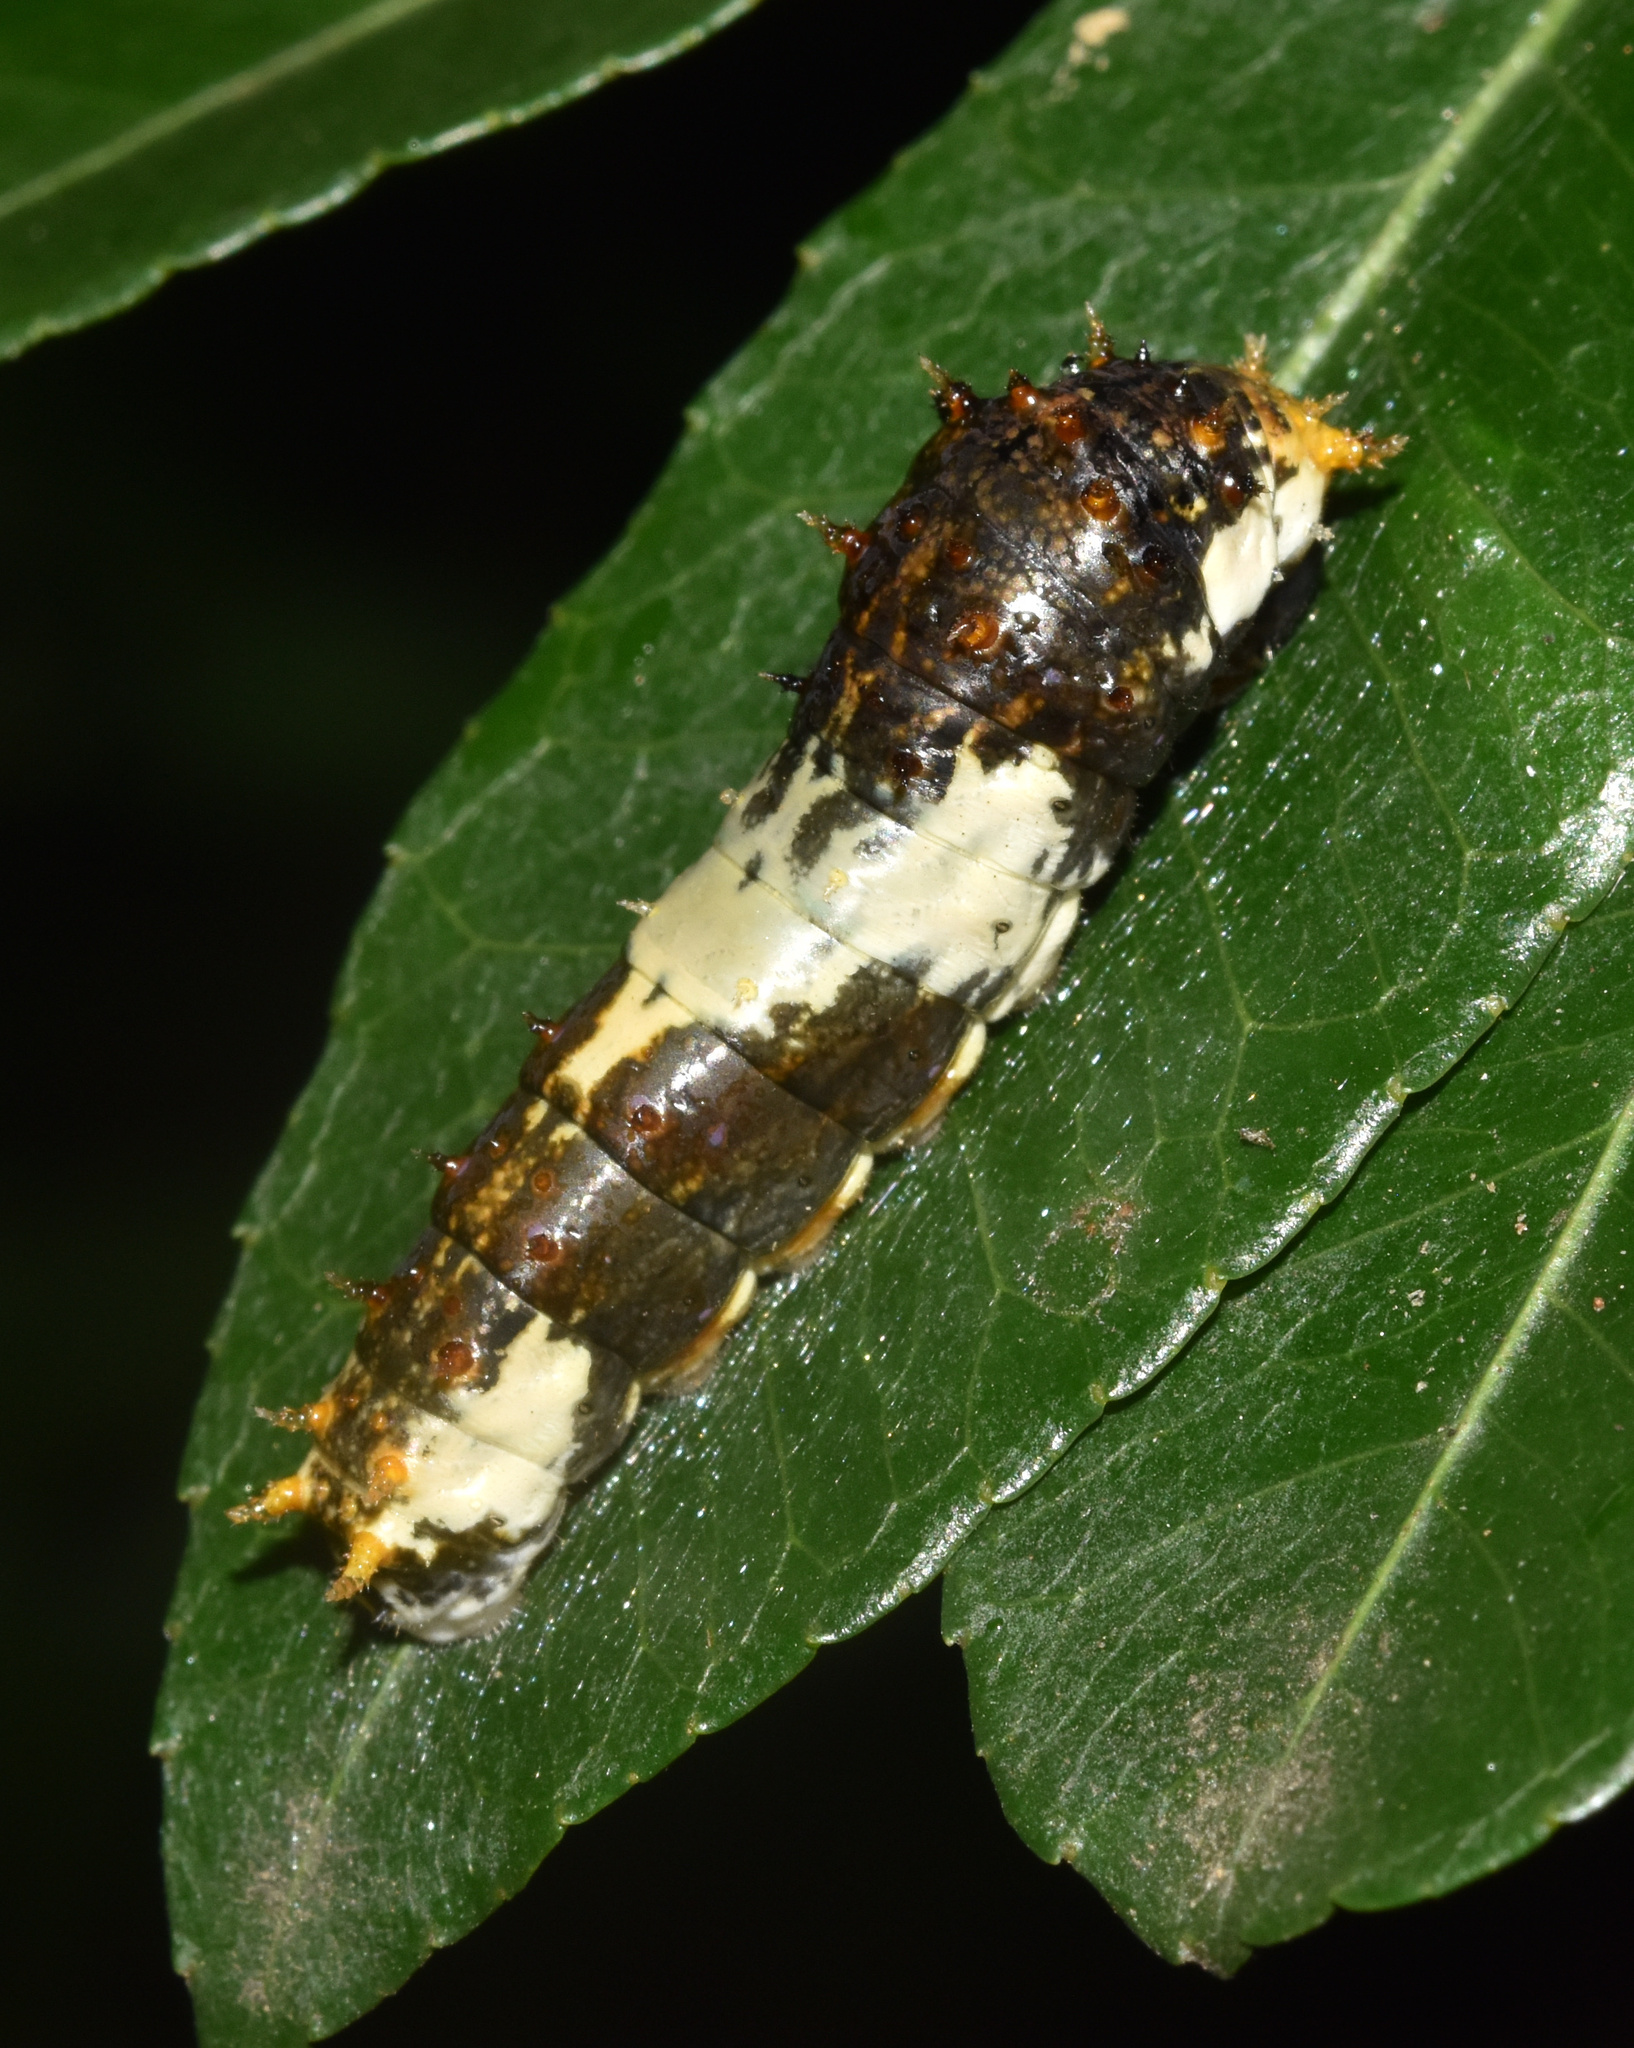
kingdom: Animalia
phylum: Arthropoda
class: Insecta
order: Lepidoptera
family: Papilionidae
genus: Papilio
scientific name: Papilio demodocus
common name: Christmas butterfly
